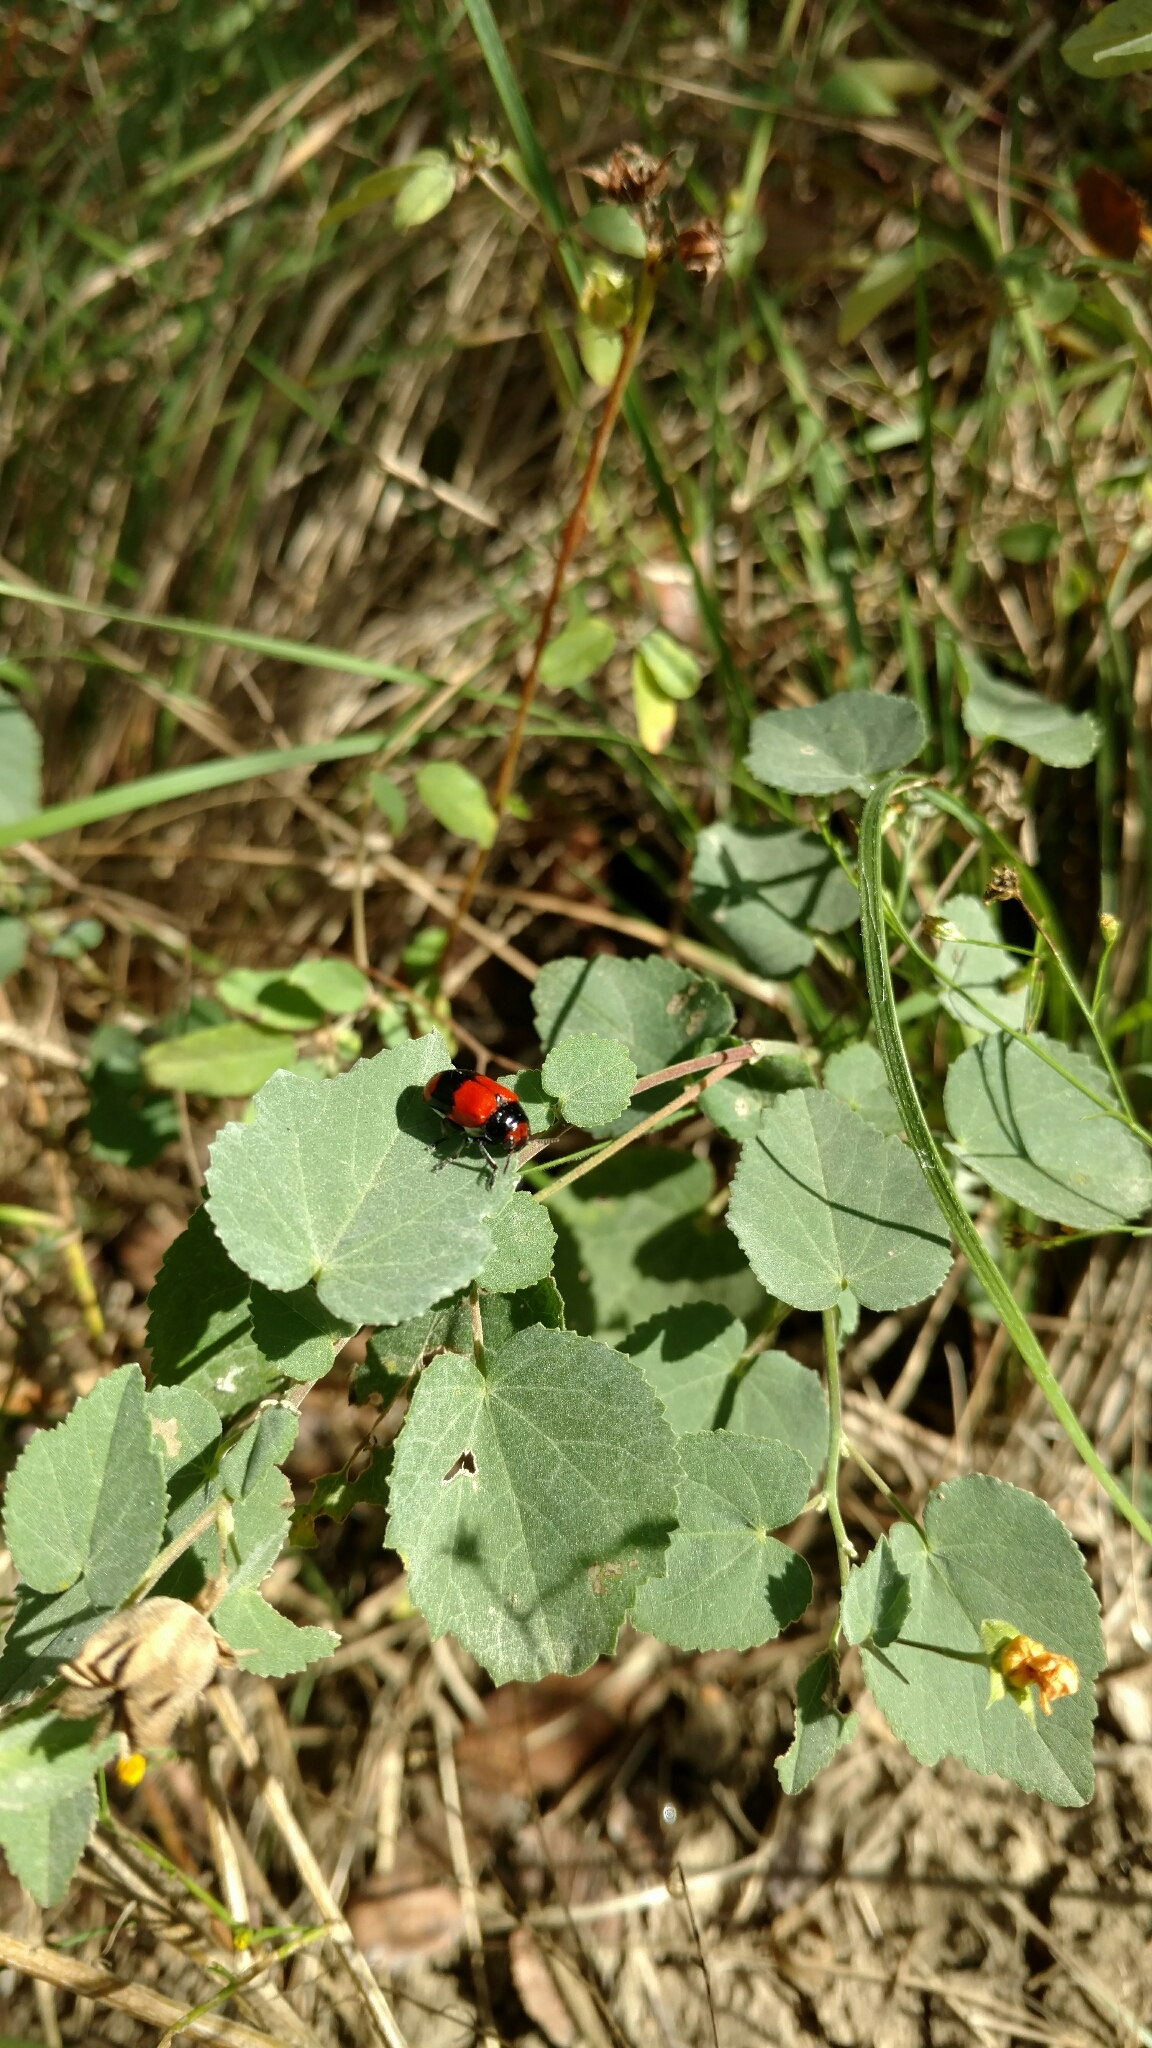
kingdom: Animalia
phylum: Arthropoda
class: Insecta
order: Coleoptera
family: Chrysomelidae
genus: Anomoea
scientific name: Anomoea rufifrons
